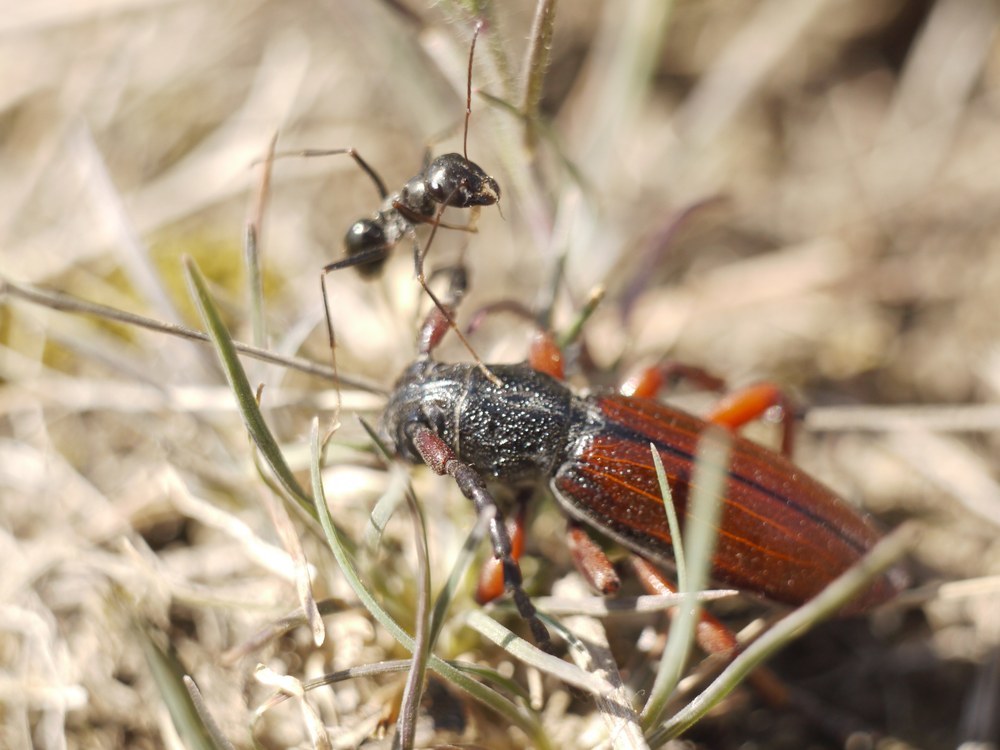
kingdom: Animalia
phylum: Arthropoda
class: Insecta
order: Coleoptera
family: Cerambycidae
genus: Dorcadion
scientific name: Dorcadion fulvum
